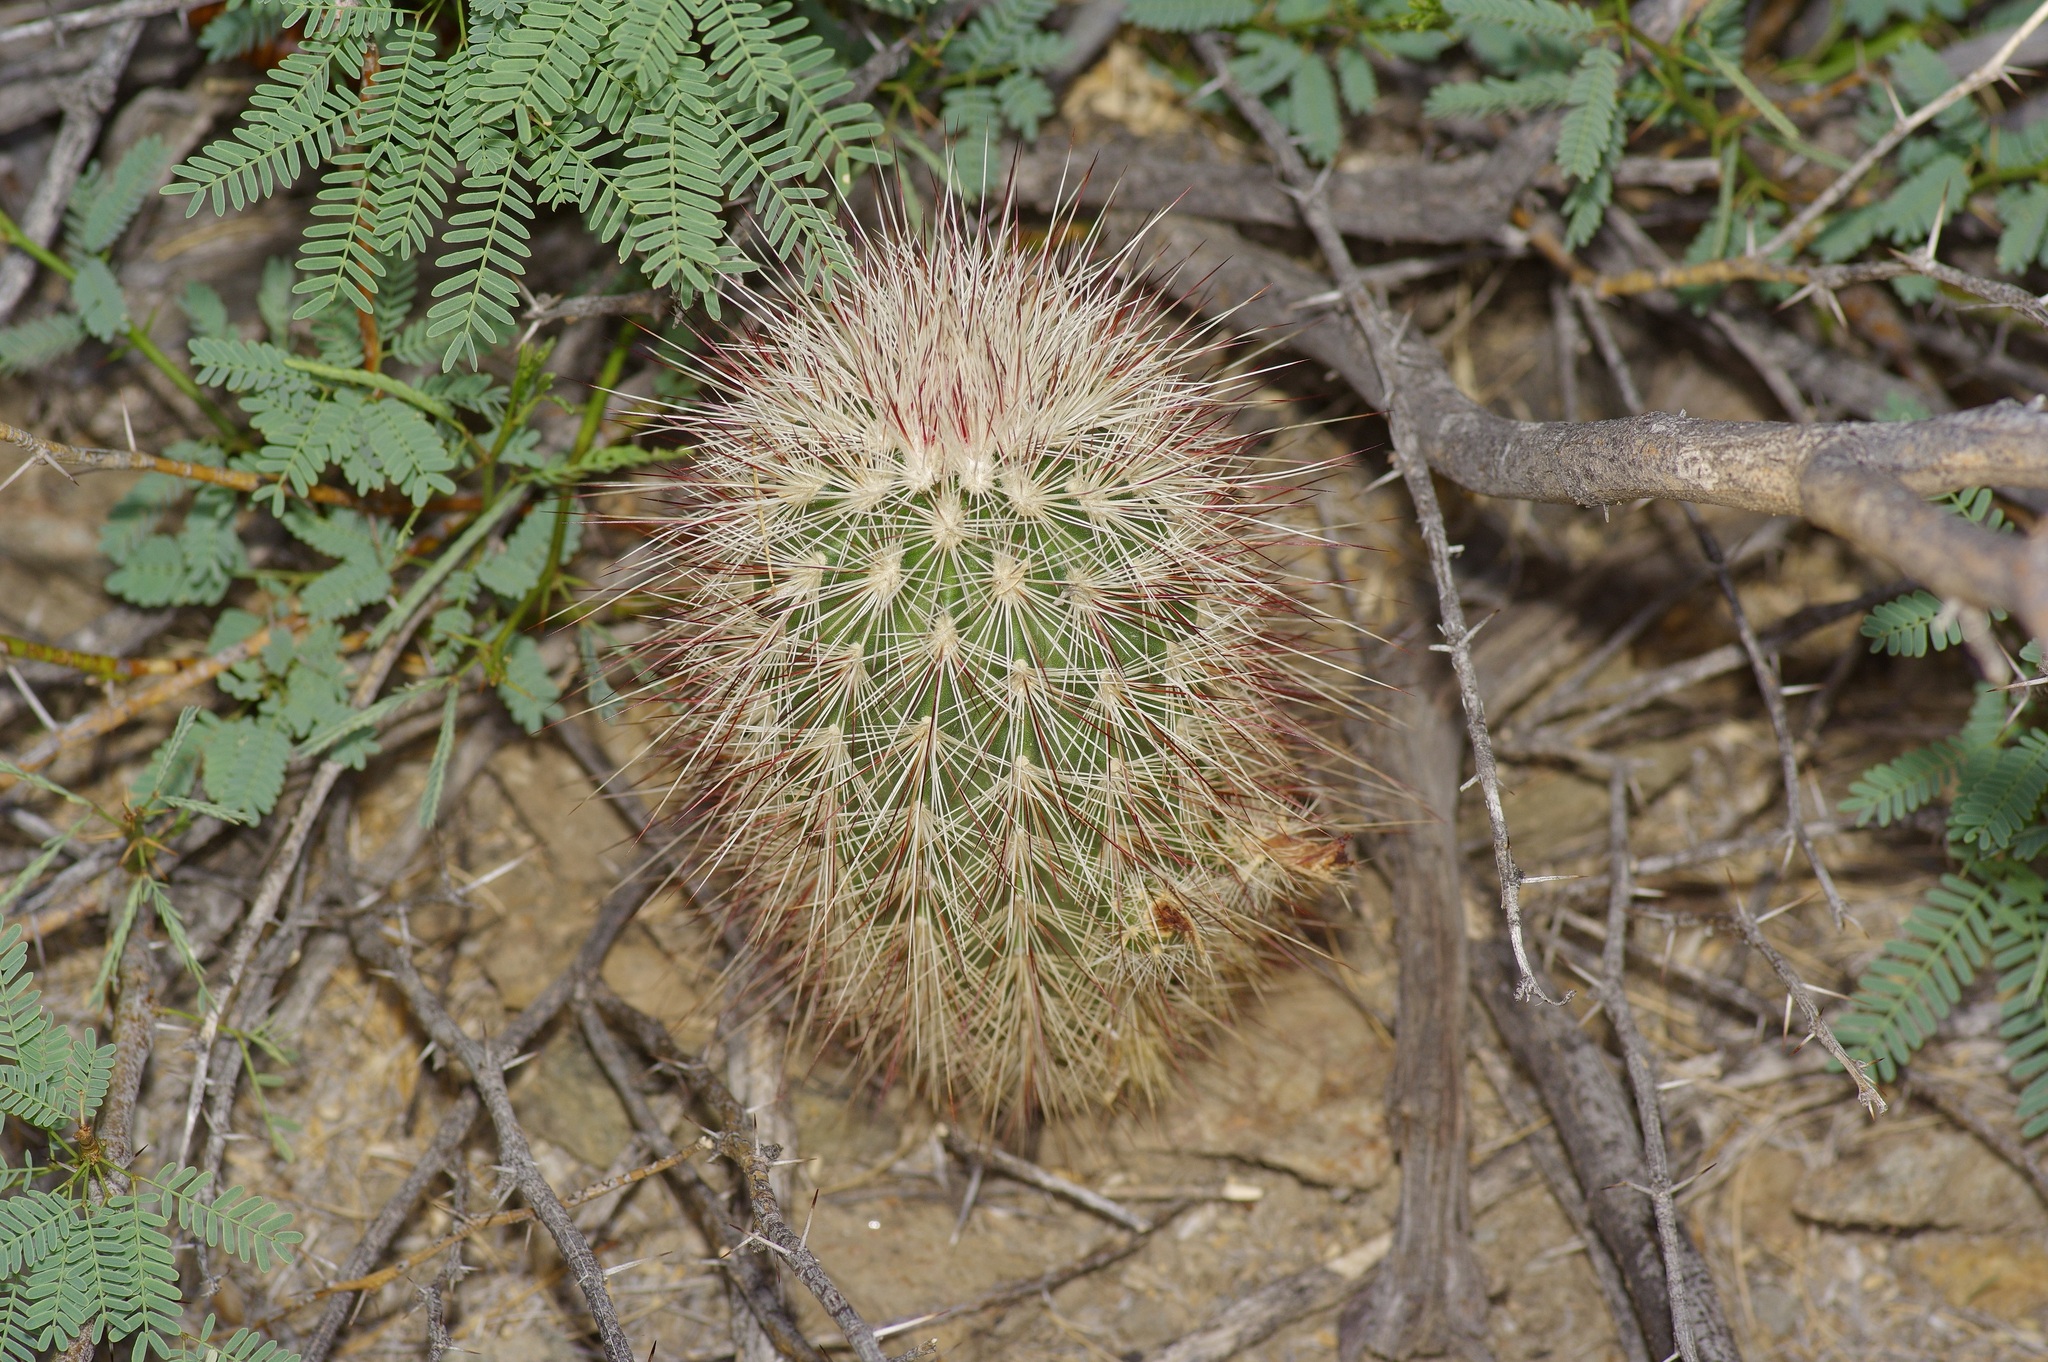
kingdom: Plantae
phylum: Tracheophyta
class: Magnoliopsida
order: Caryophyllales
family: Cactaceae
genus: Echinocereus
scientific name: Echinocereus russanthus
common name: Brownspine hedgehog cactus
